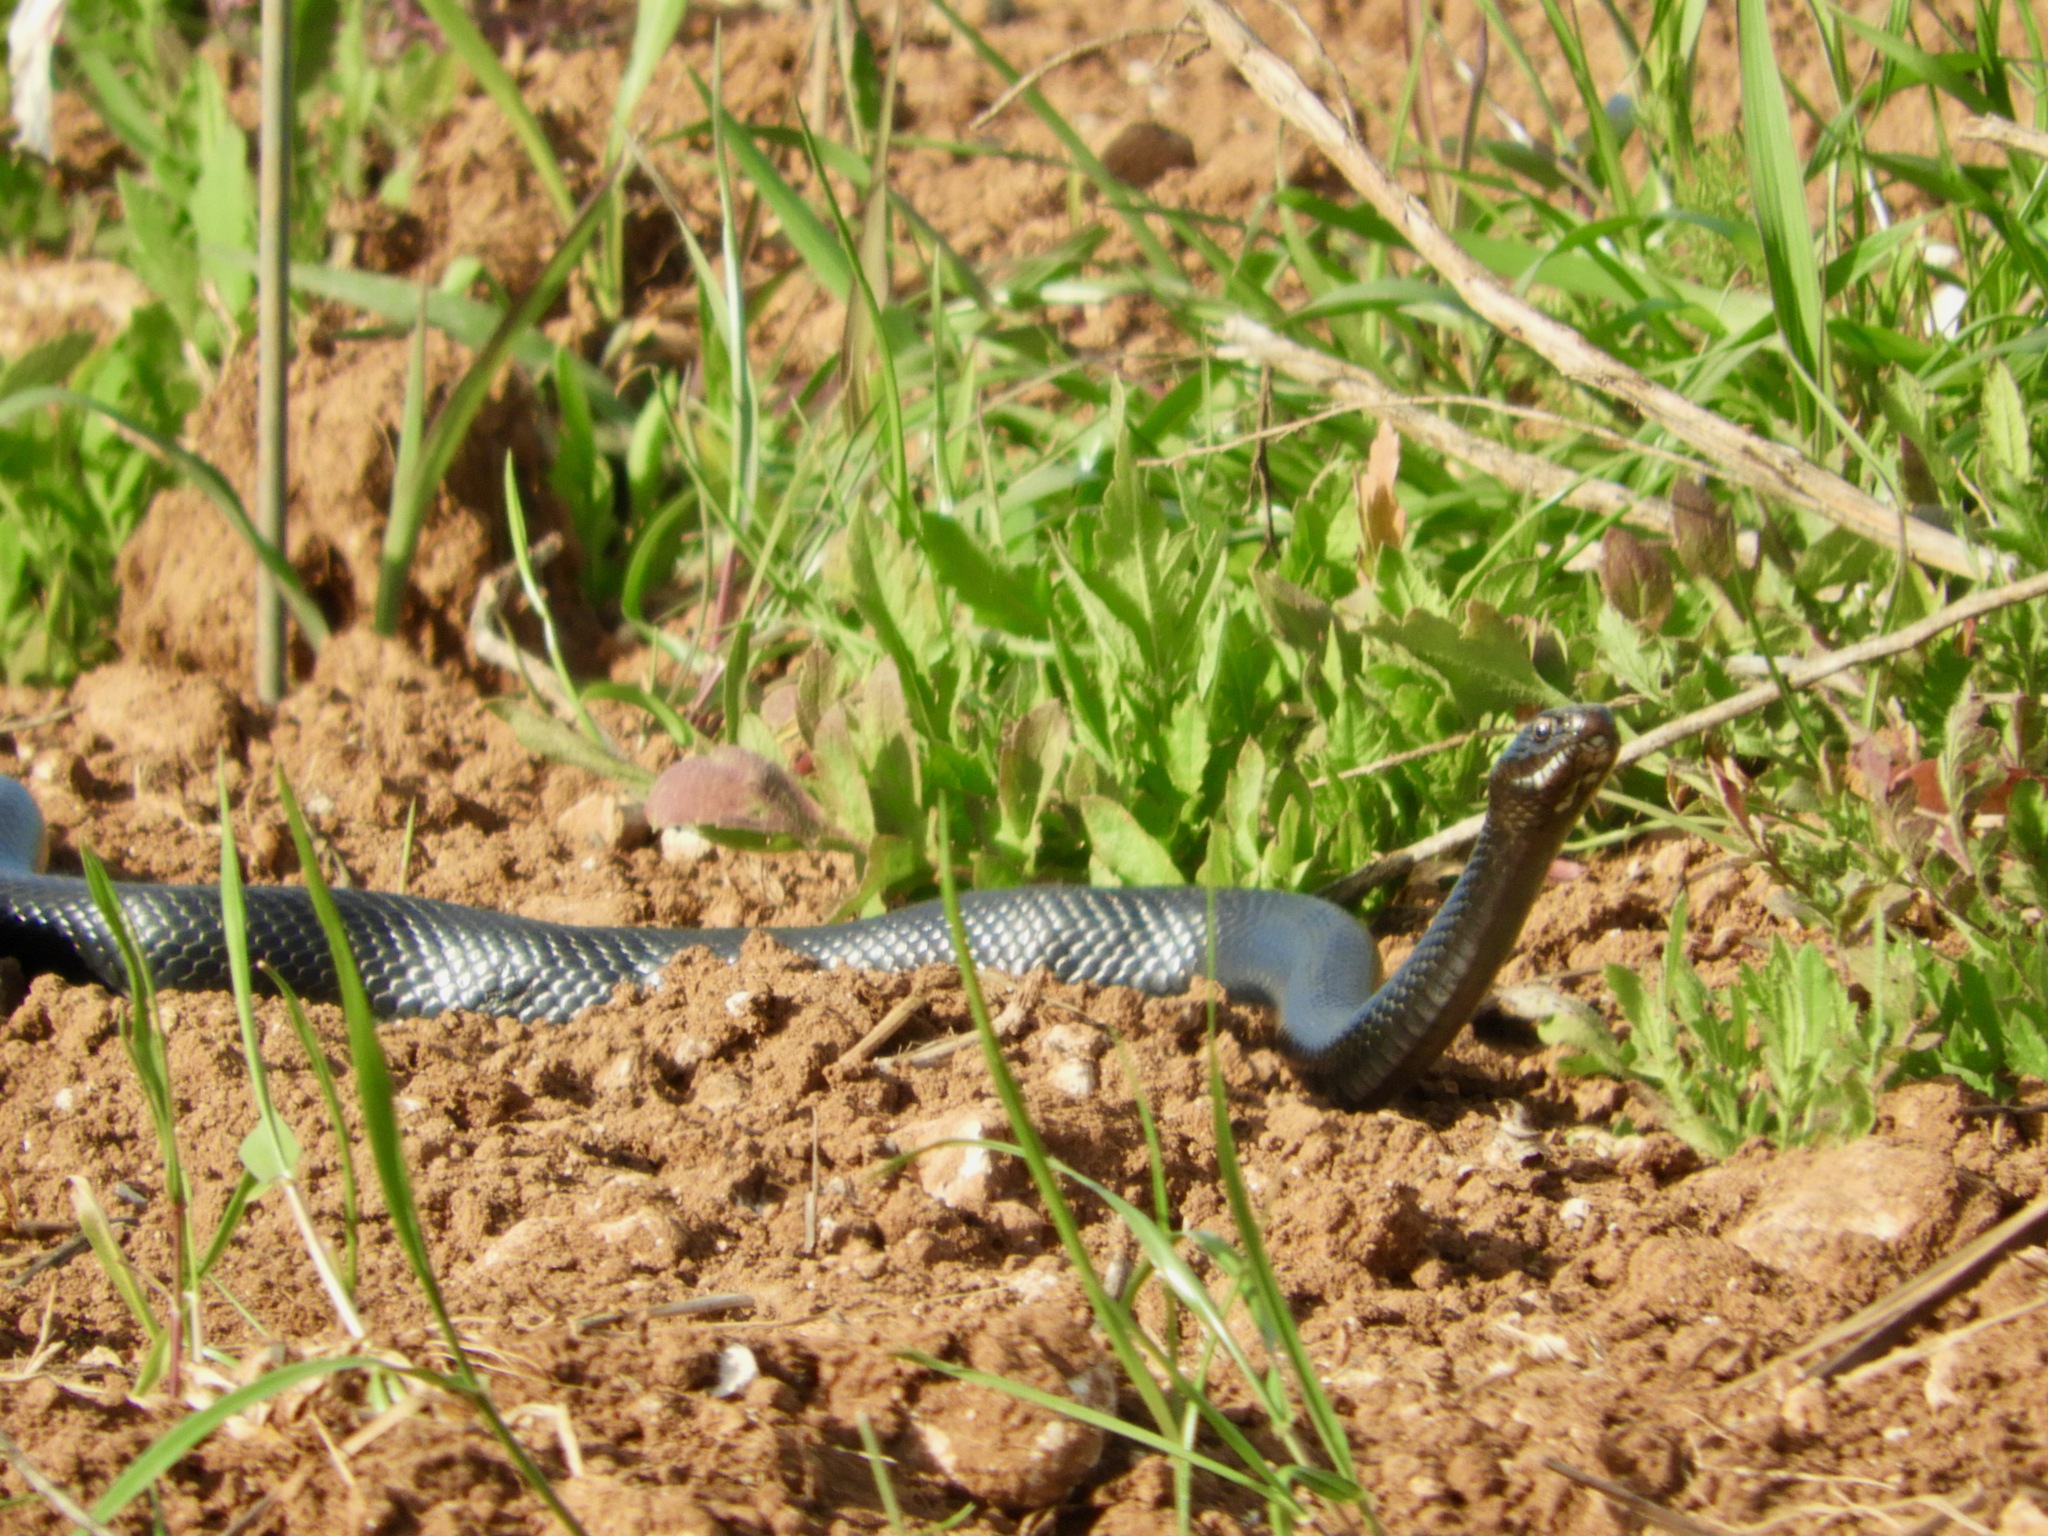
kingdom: Animalia
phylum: Chordata
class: Squamata
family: Colubridae
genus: Hierophis
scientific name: Hierophis viridiflavus
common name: Green whip snake
